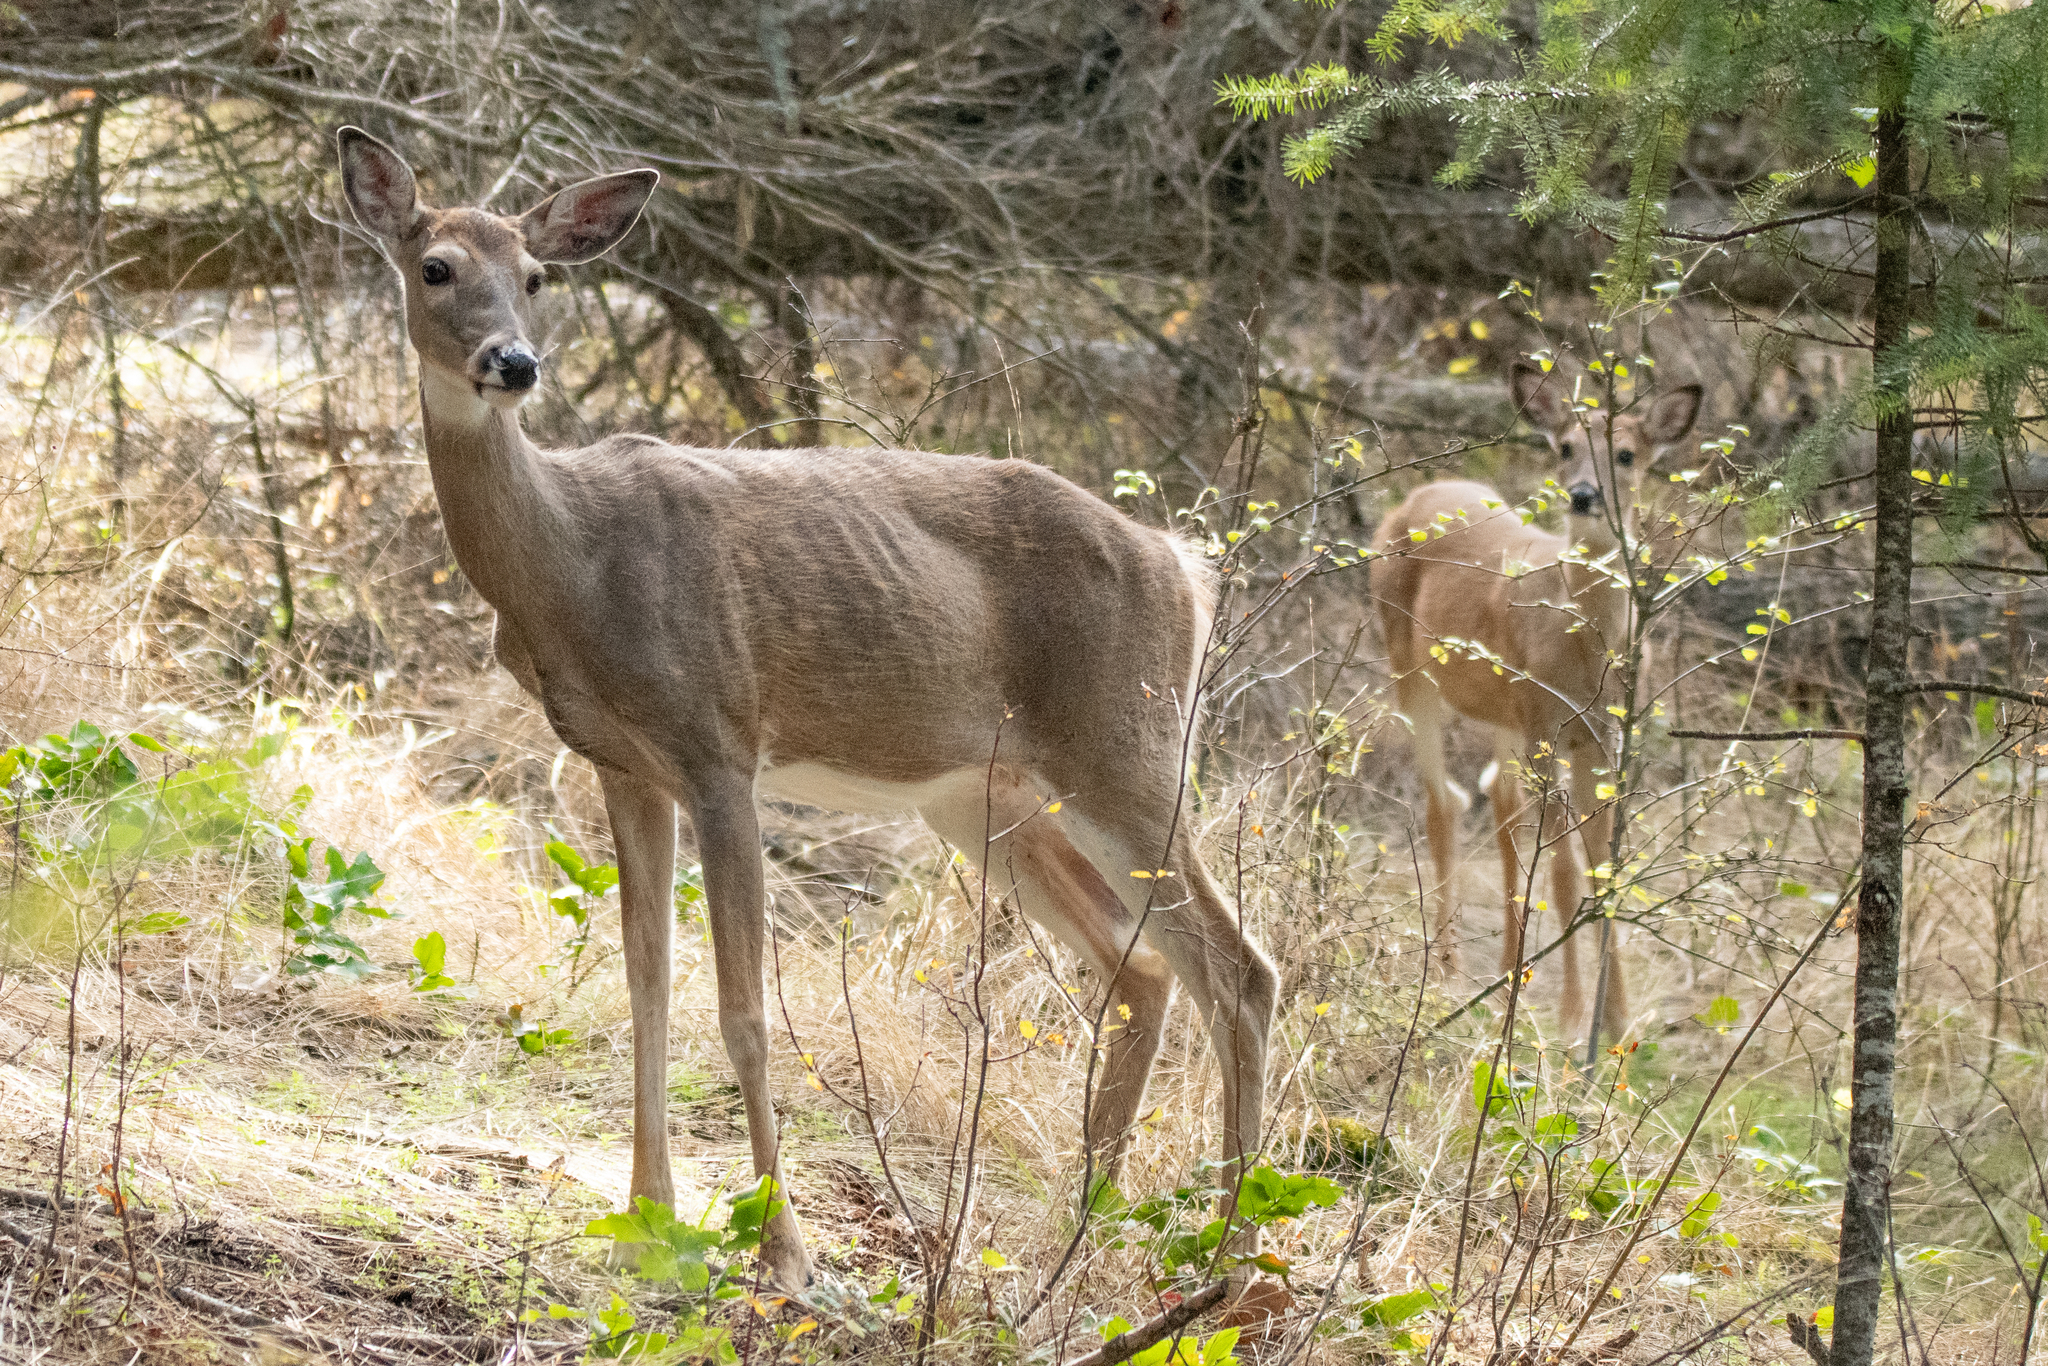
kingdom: Animalia
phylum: Chordata
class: Mammalia
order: Artiodactyla
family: Cervidae
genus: Odocoileus
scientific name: Odocoileus virginianus
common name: White-tailed deer
